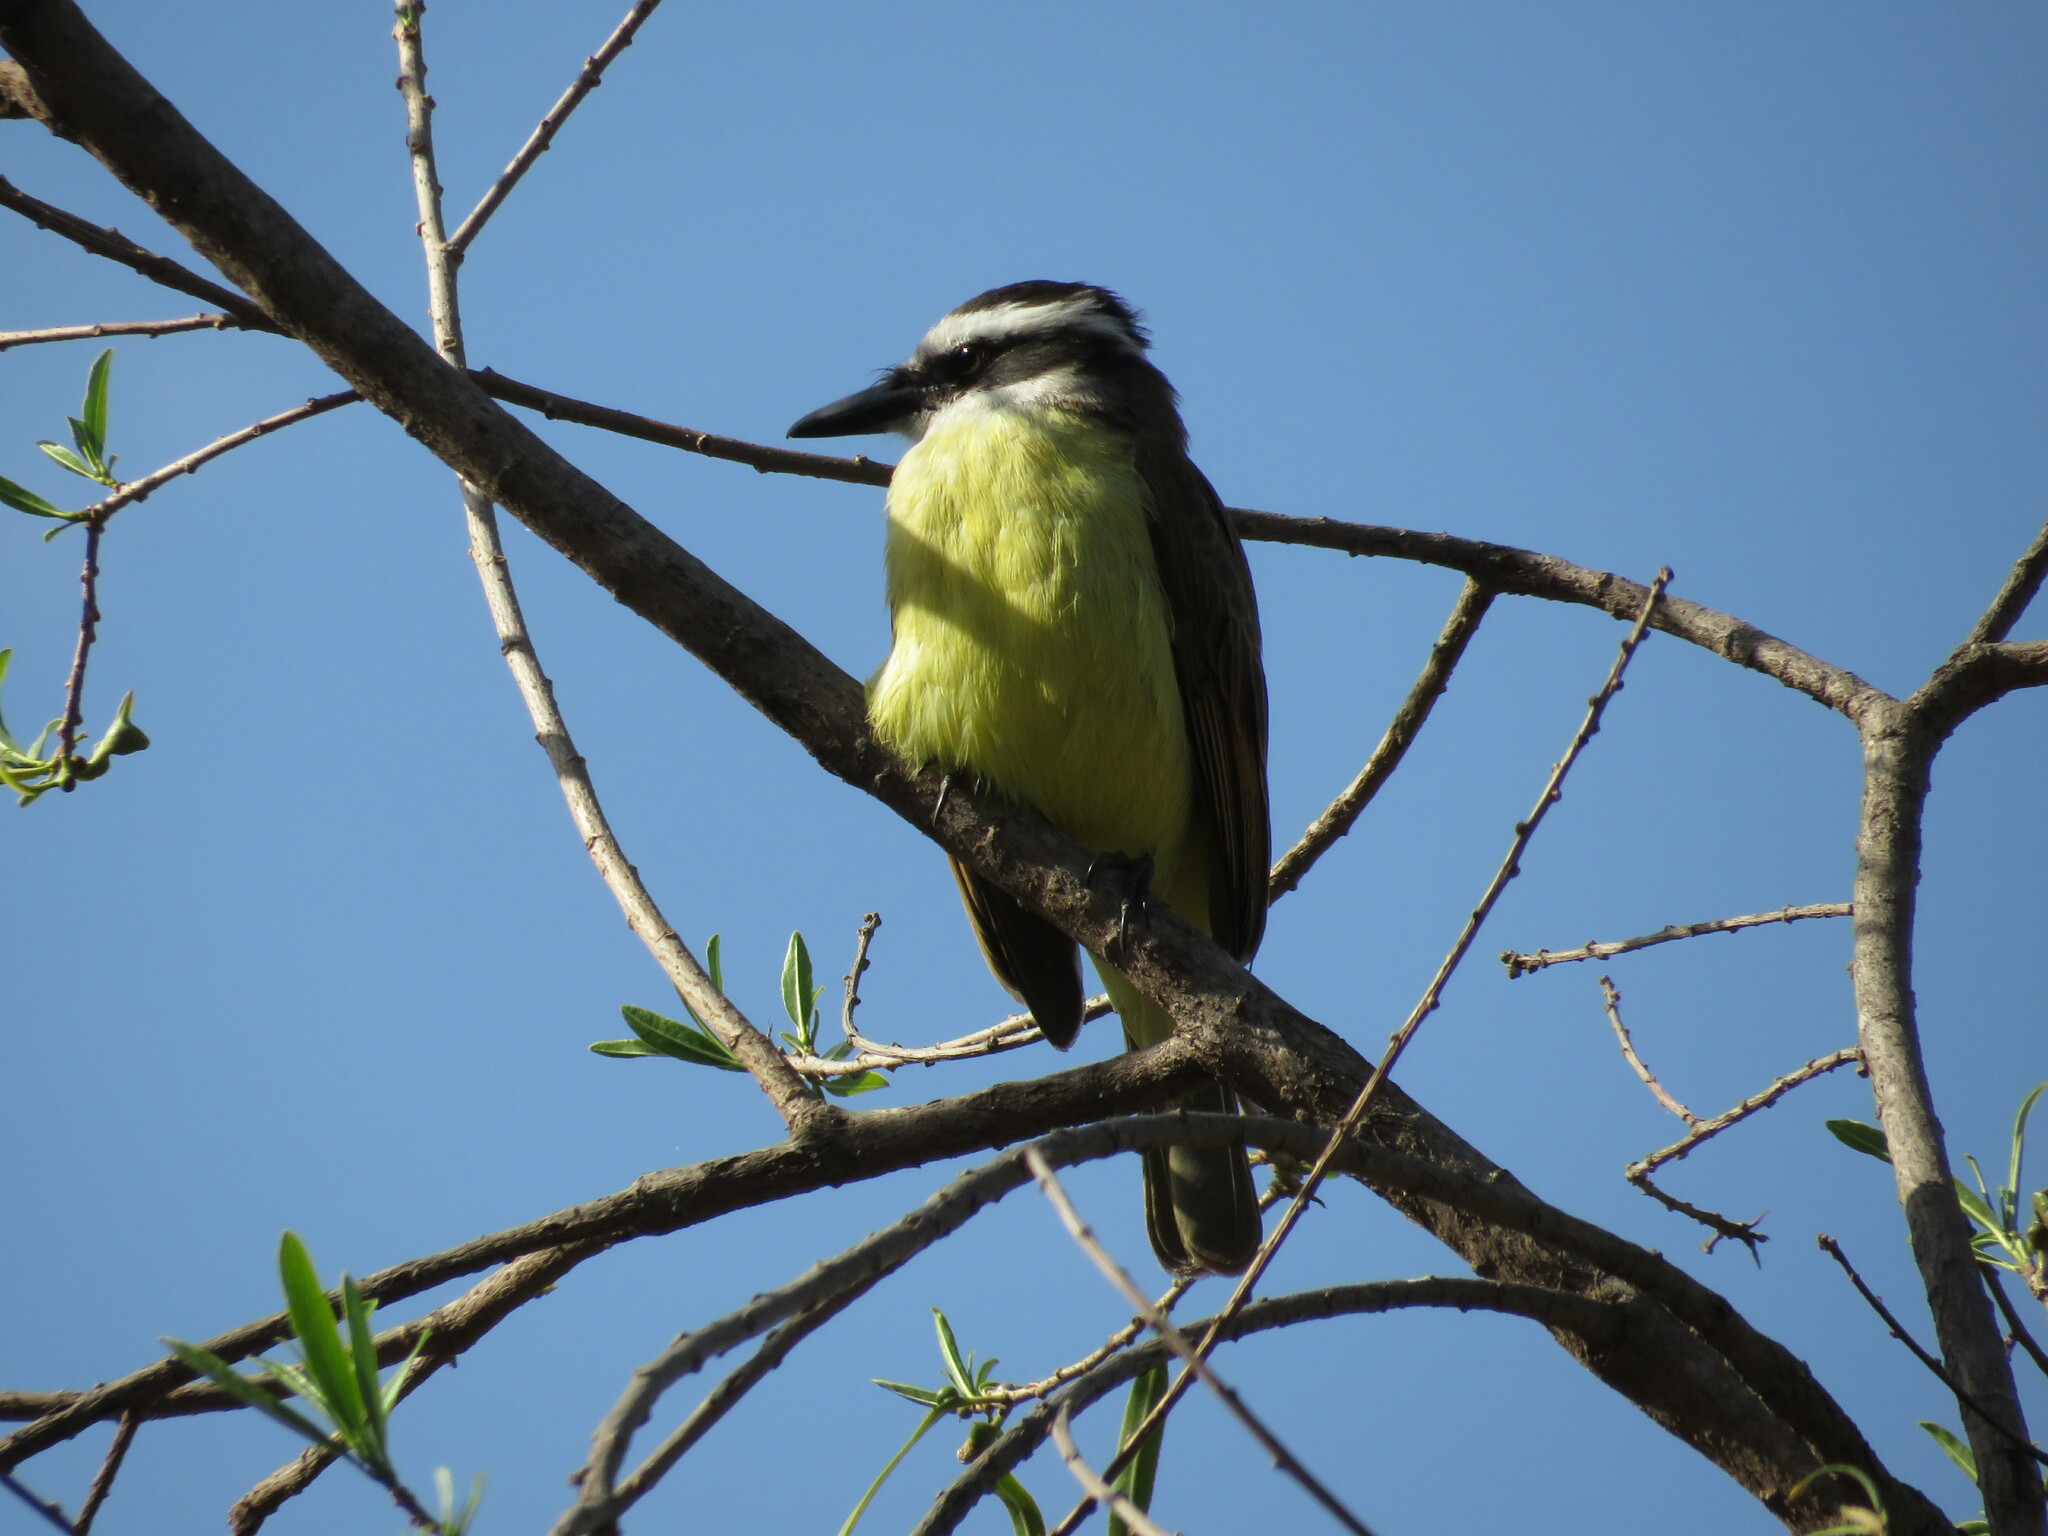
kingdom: Animalia
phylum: Chordata
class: Aves
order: Passeriformes
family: Tyrannidae
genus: Pitangus
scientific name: Pitangus sulphuratus
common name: Great kiskadee
